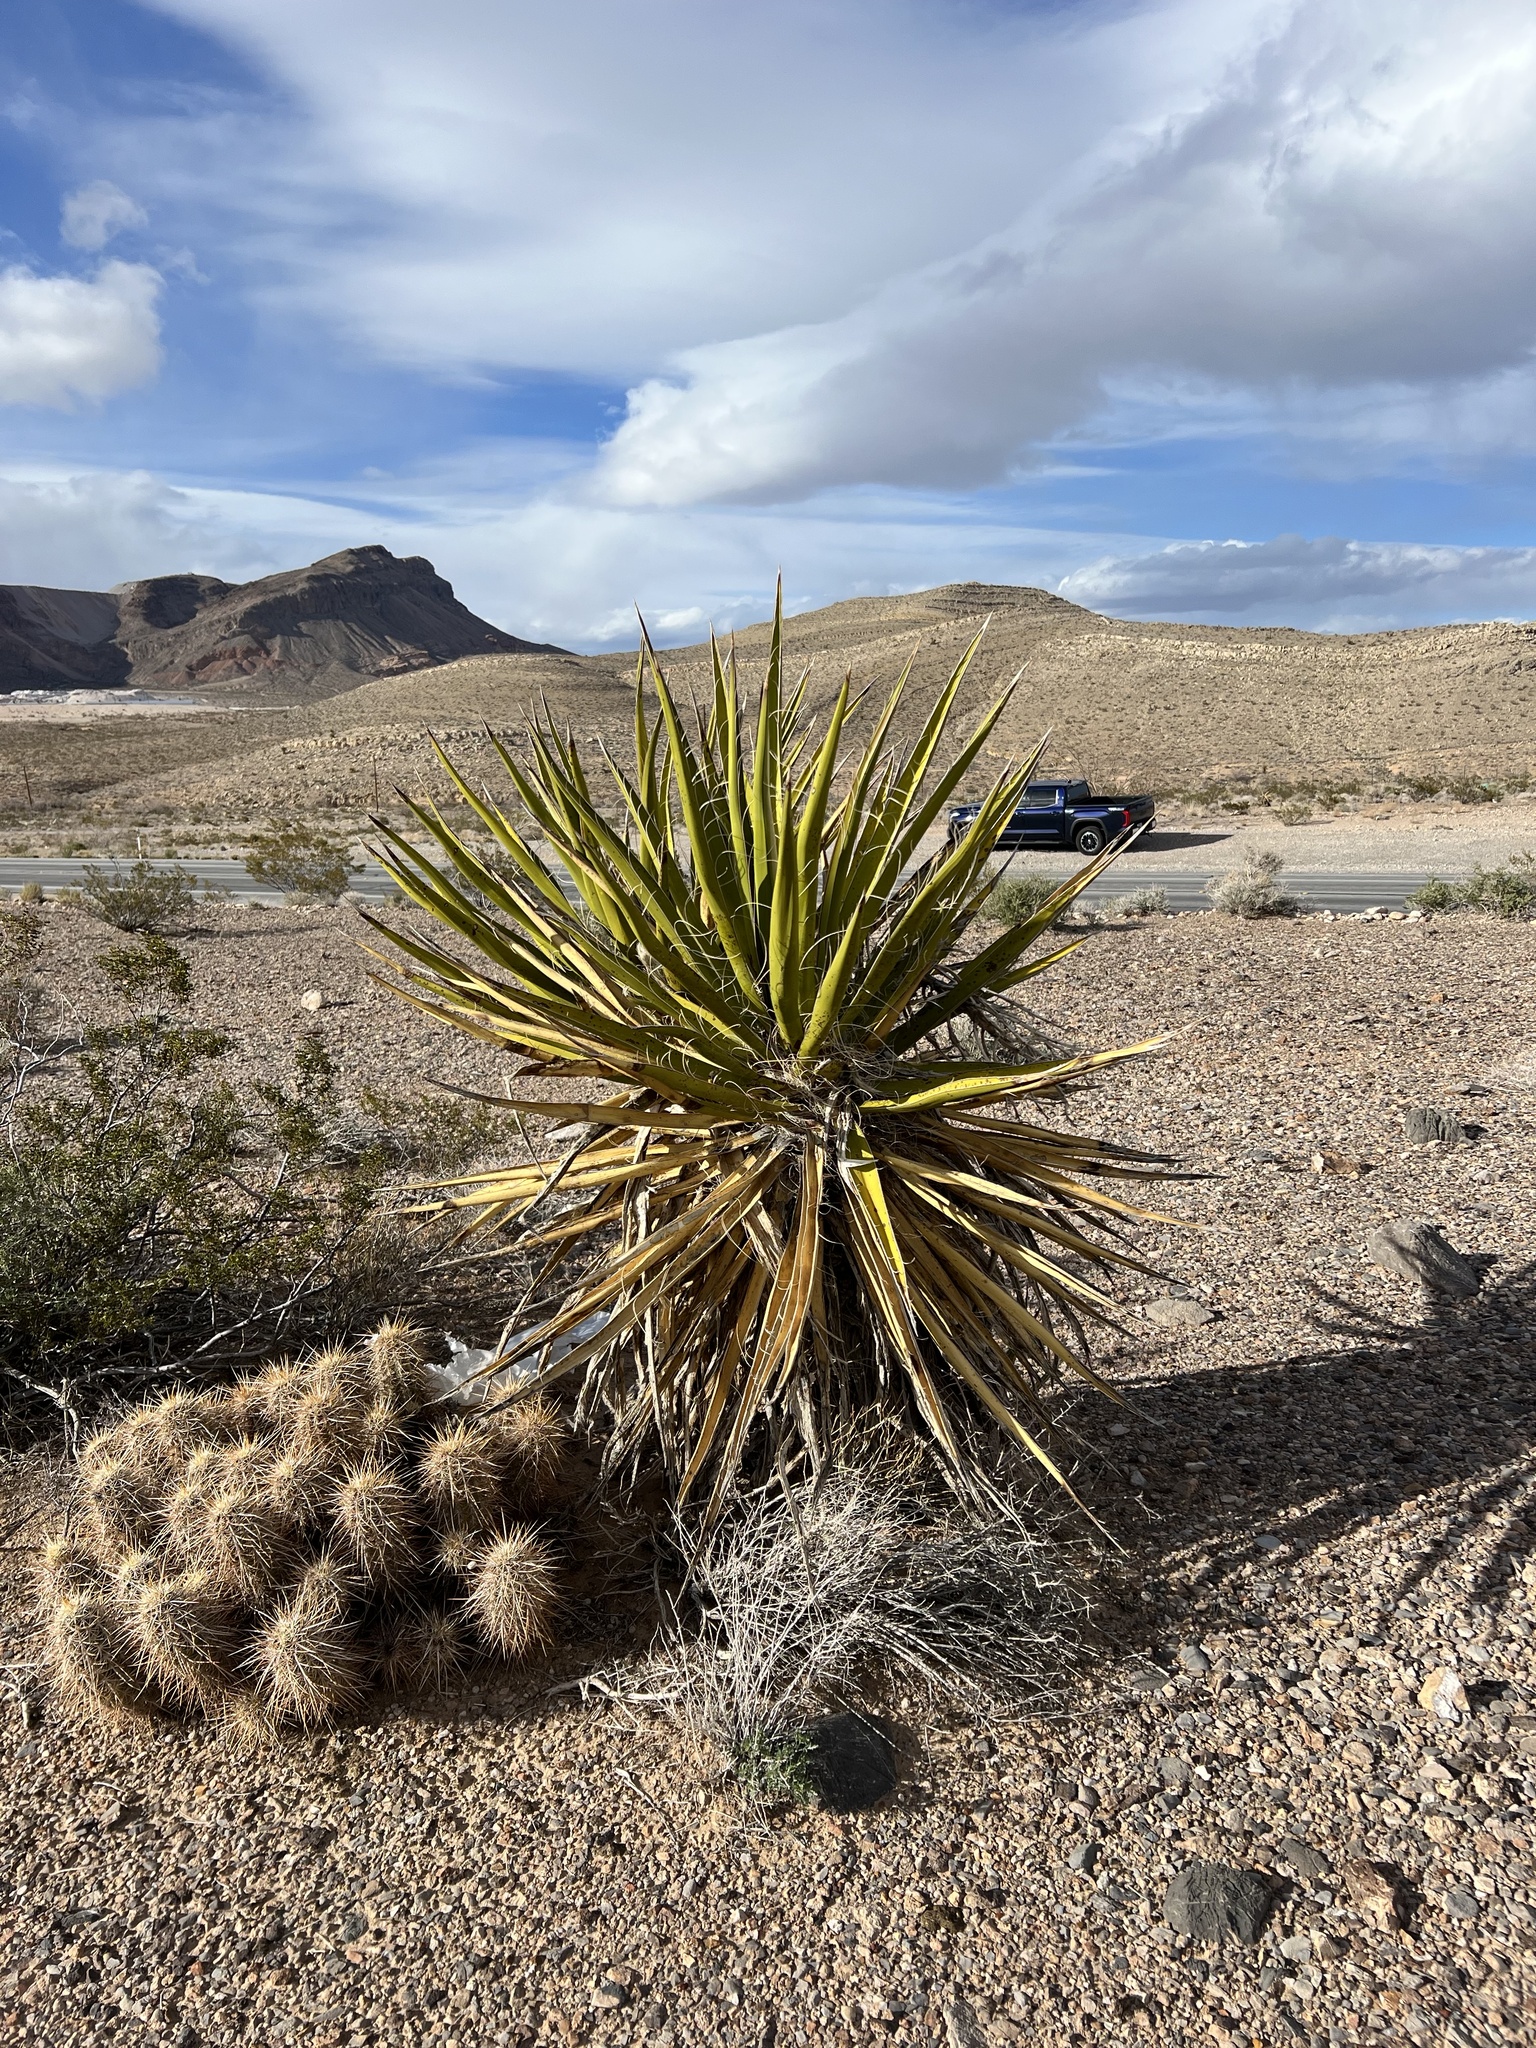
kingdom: Plantae
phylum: Tracheophyta
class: Liliopsida
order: Asparagales
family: Asparagaceae
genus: Yucca
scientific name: Yucca schidigera
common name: Mojave yucca
